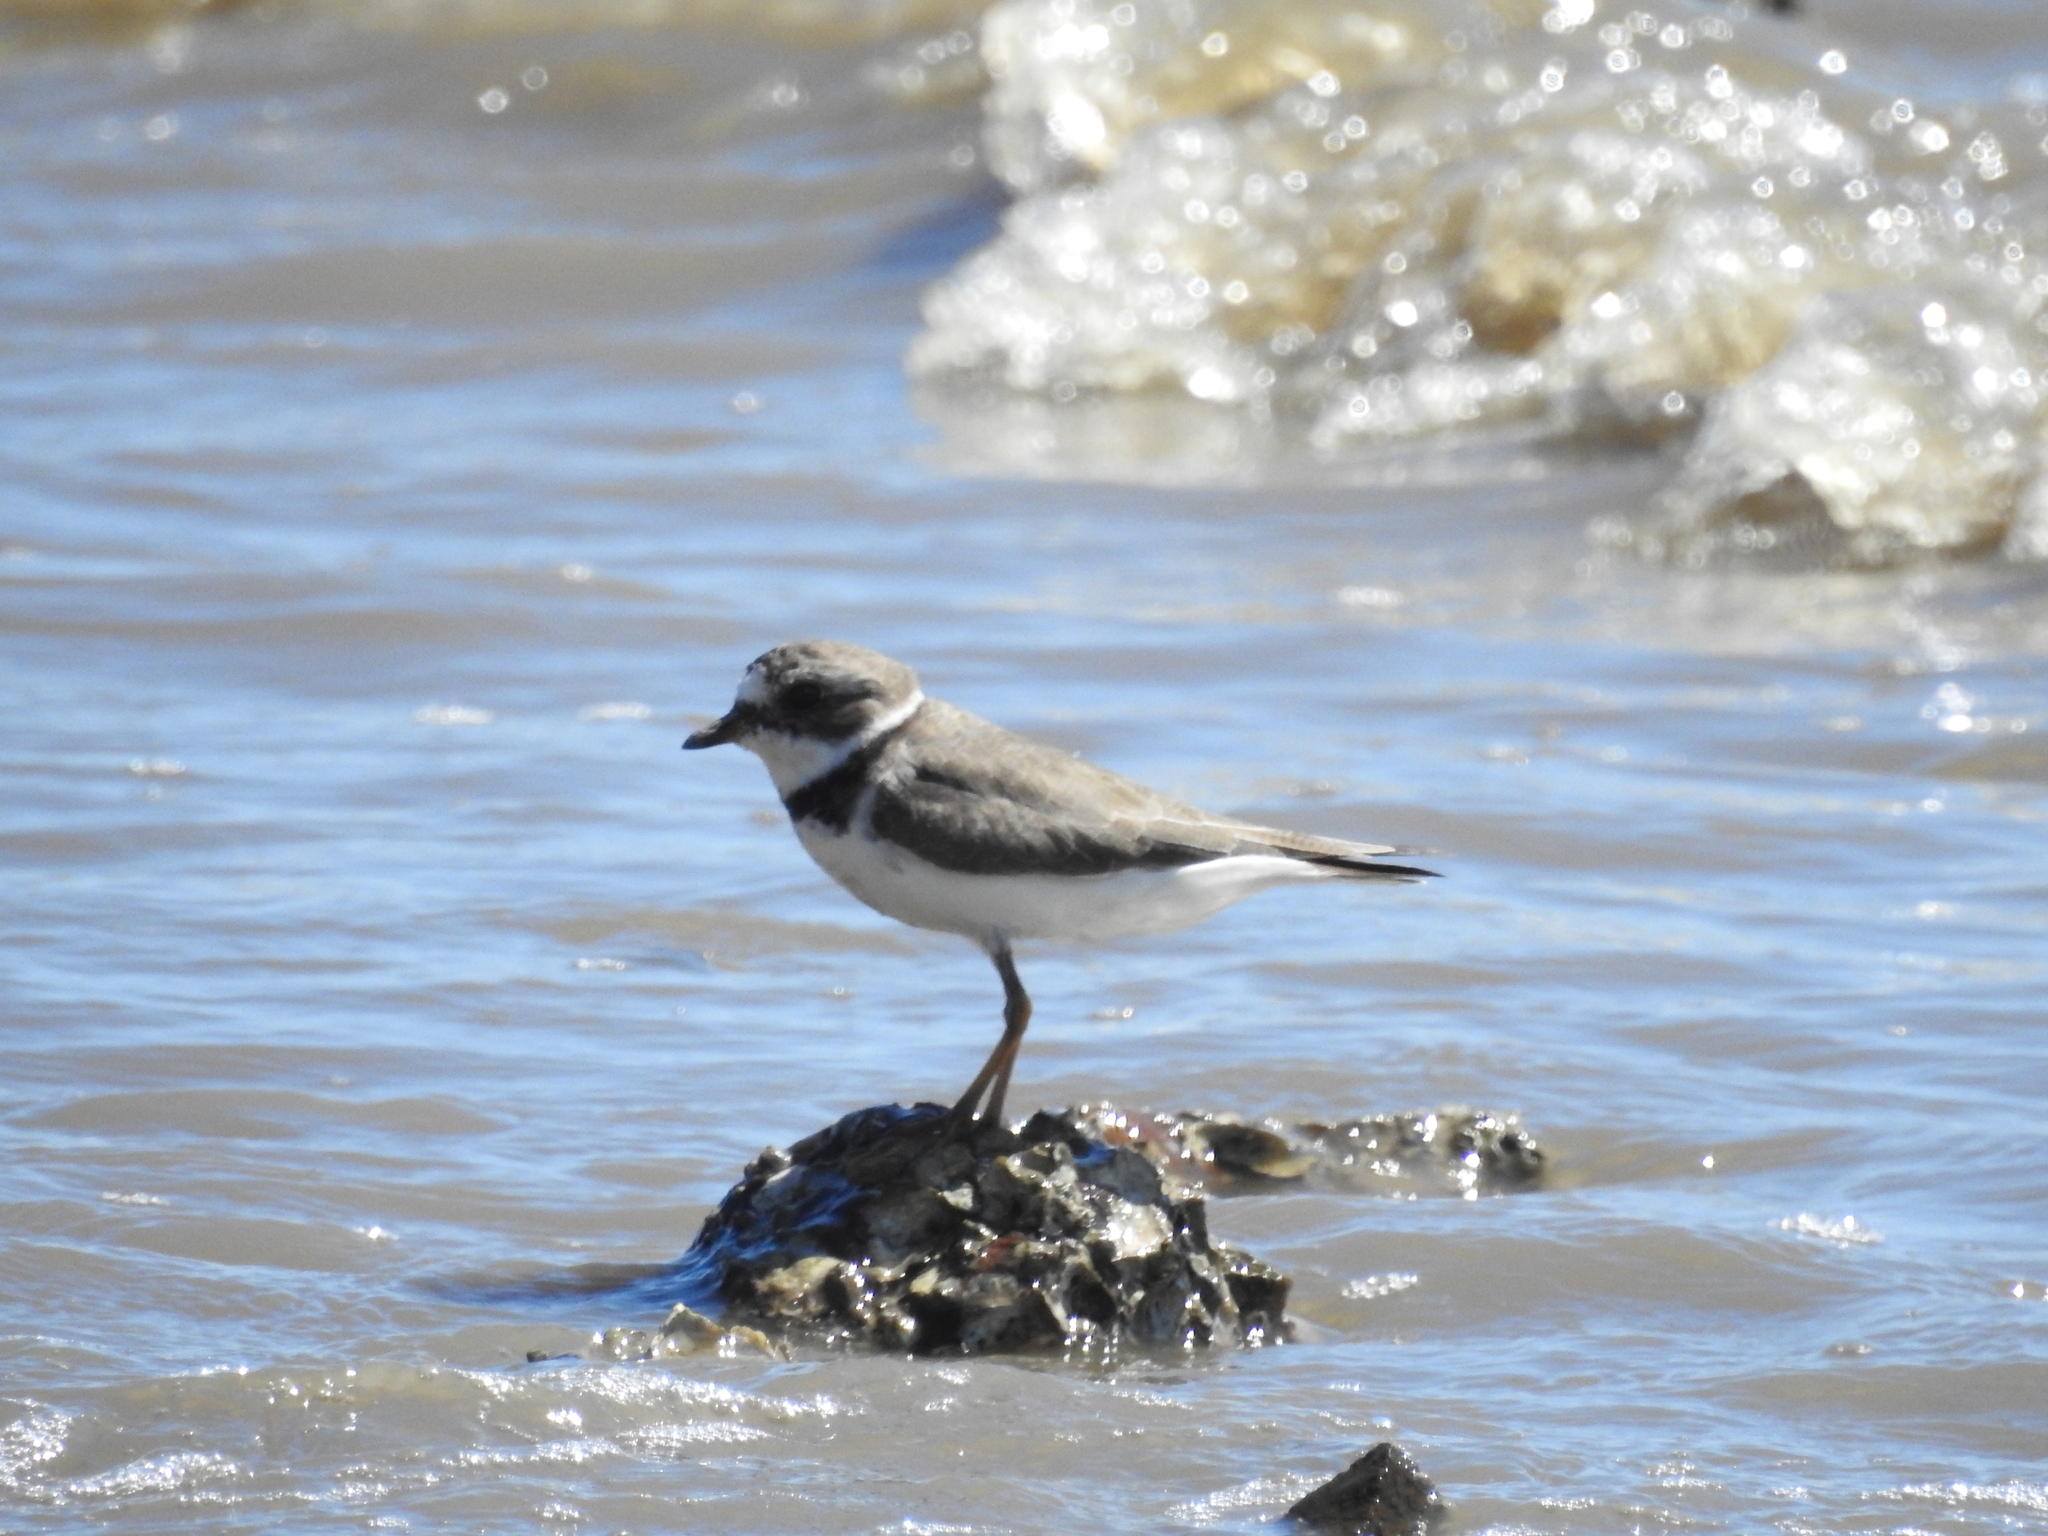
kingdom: Animalia
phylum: Chordata
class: Aves
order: Charadriiformes
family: Charadriidae
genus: Charadrius
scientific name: Charadrius semipalmatus
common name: Semipalmated plover
